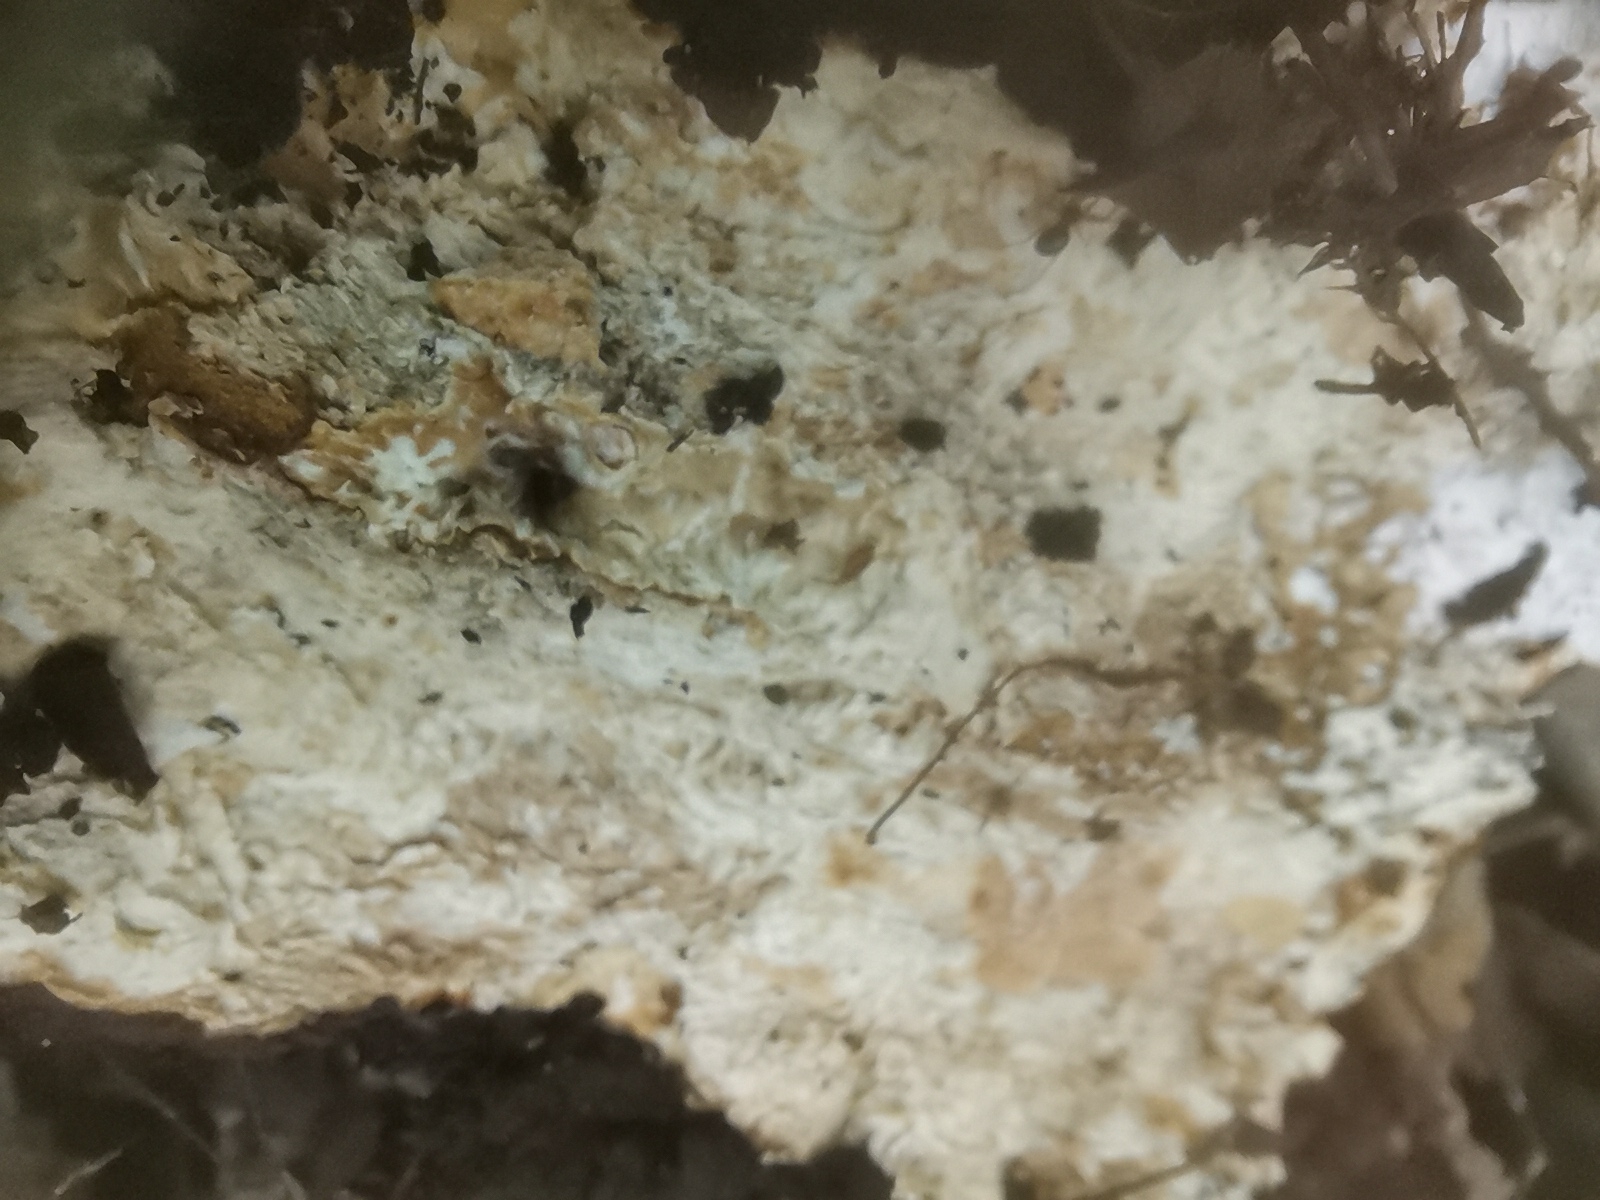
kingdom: Fungi
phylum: Basidiomycota
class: Agaricomycetes
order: Polyporales
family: Polyporaceae
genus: Ganoderma
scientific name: Ganoderma applanatum
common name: Artist's bracket
